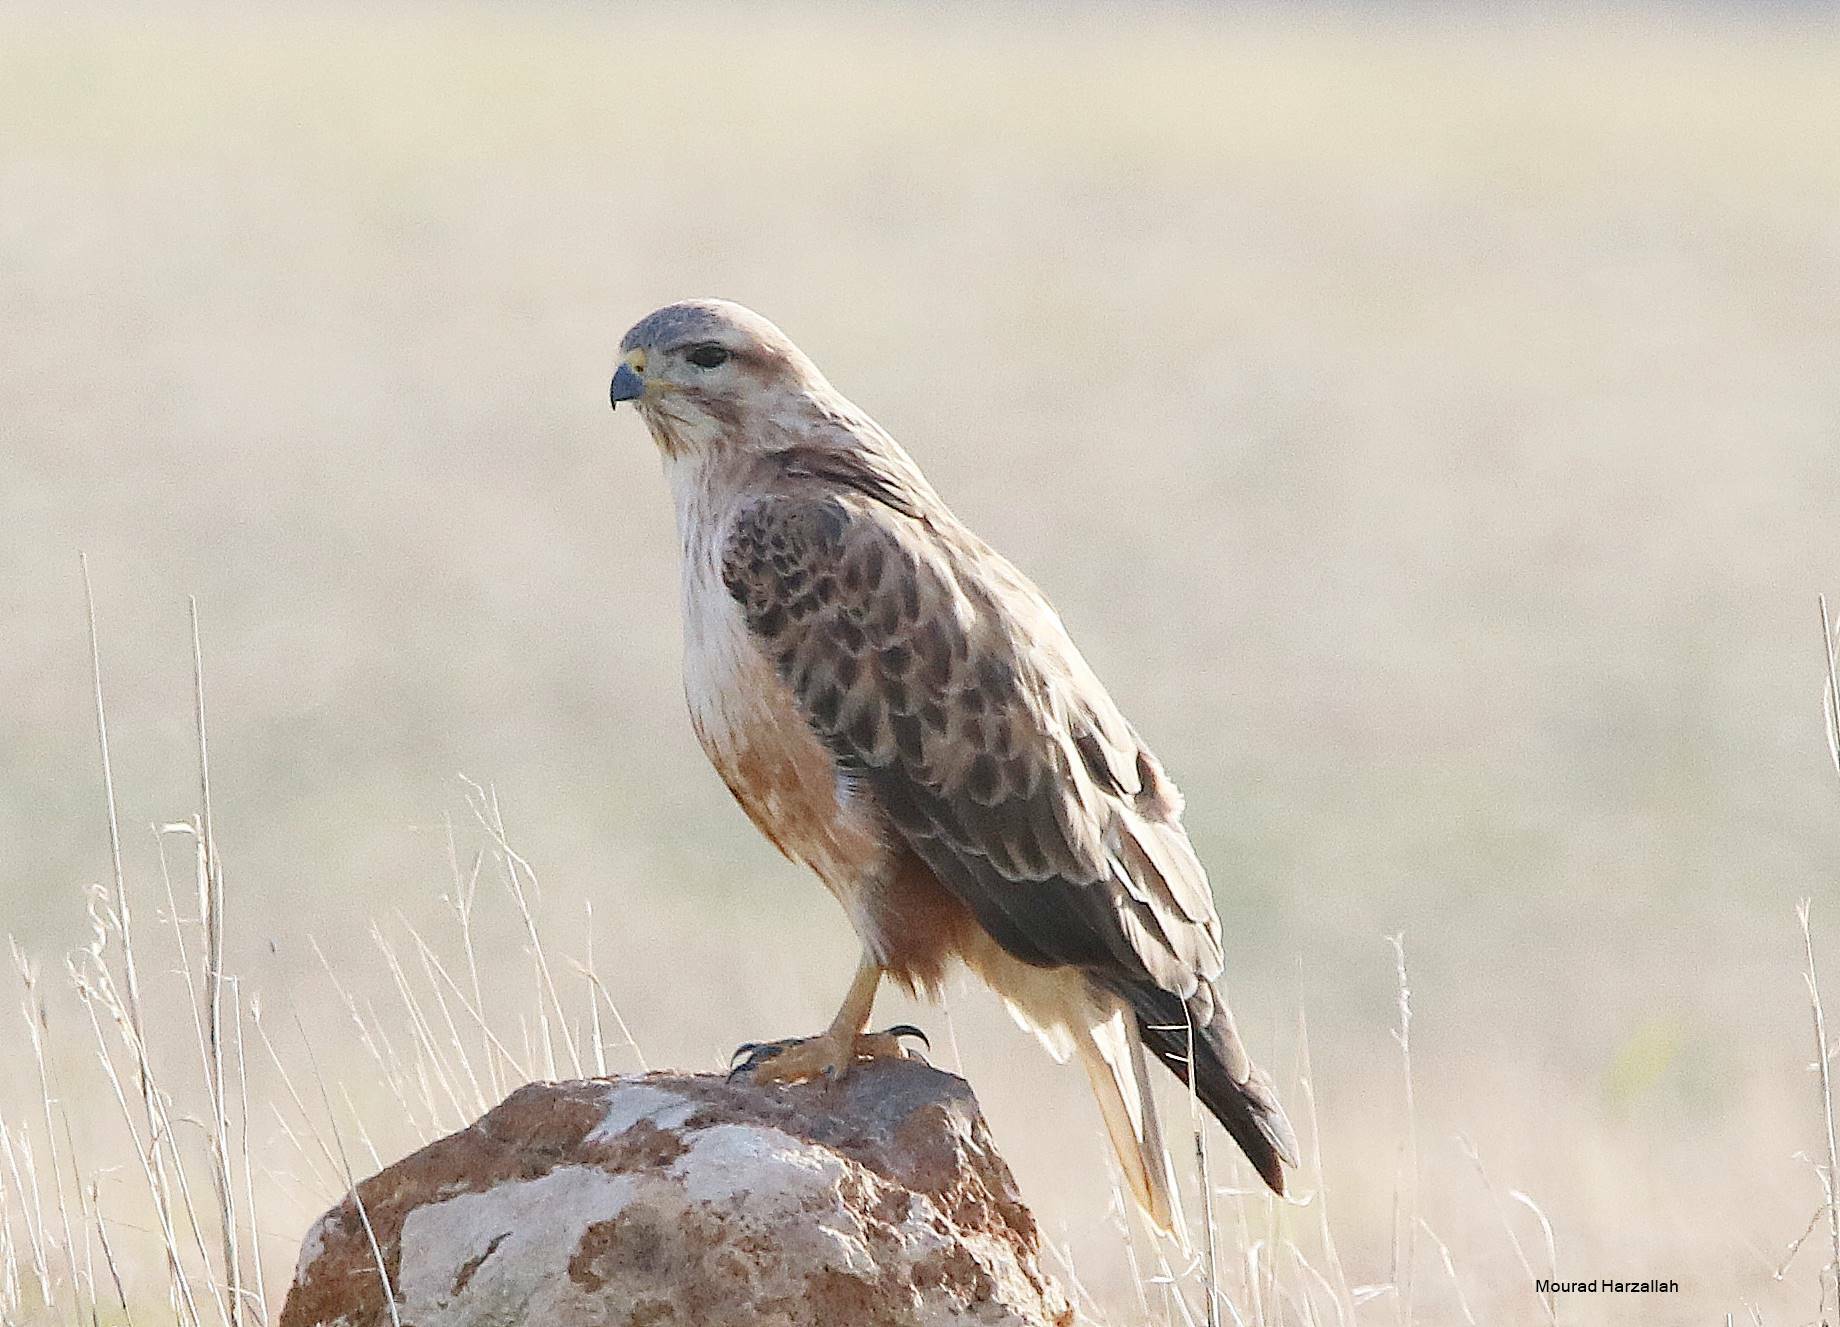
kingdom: Animalia
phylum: Chordata
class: Aves
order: Accipitriformes
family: Accipitridae
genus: Buteo
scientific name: Buteo rufinus
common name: Long-legged buzzard
